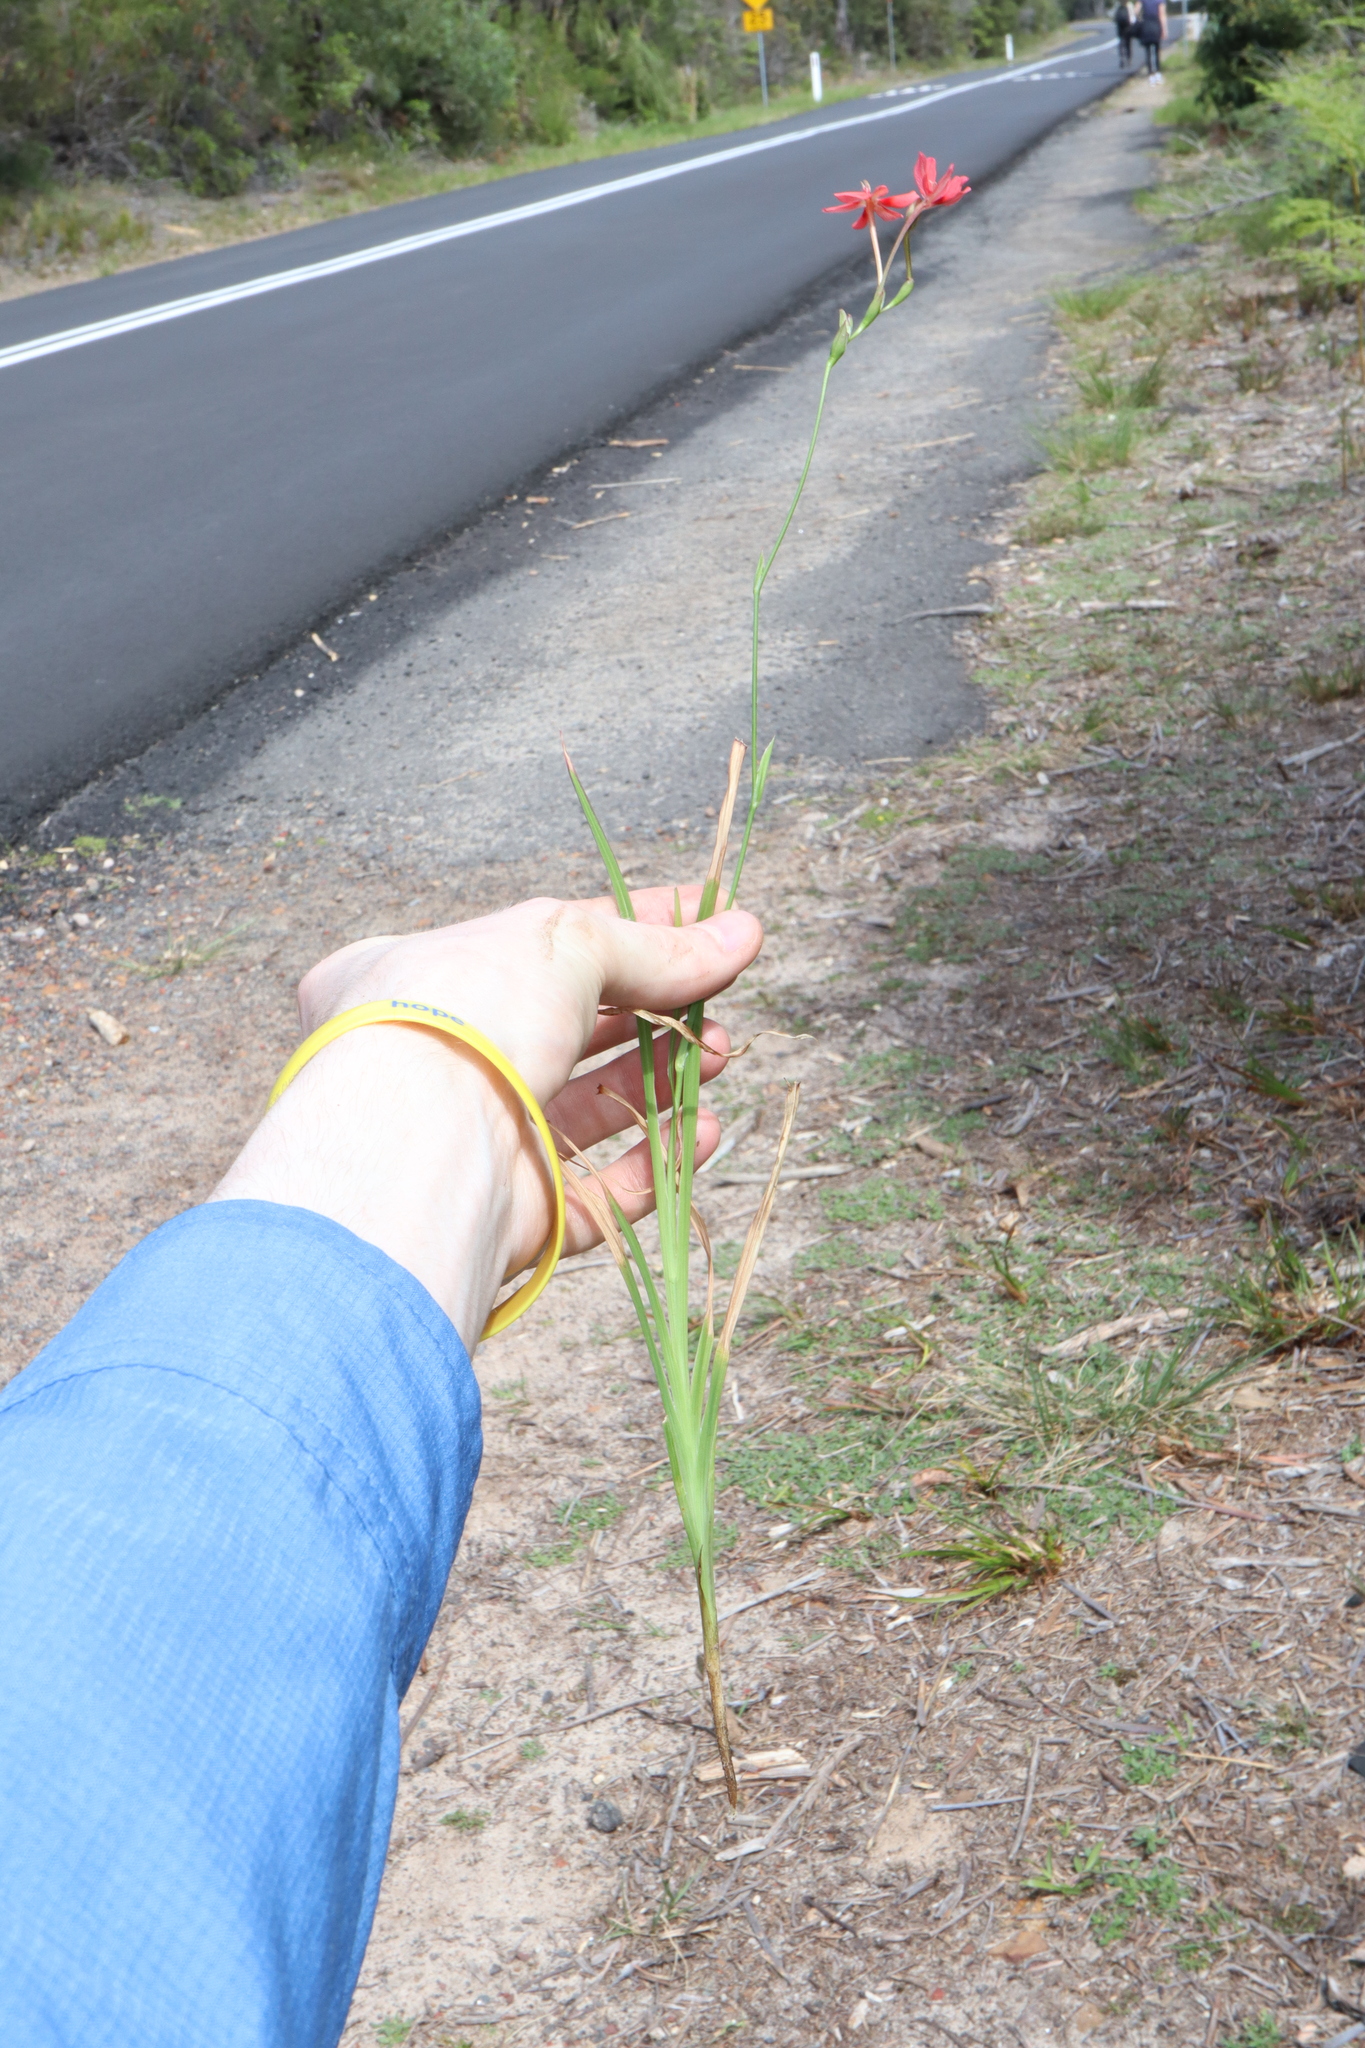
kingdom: Plantae
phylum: Tracheophyta
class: Liliopsida
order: Asparagales
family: Iridaceae
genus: Freesia
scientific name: Freesia laxa
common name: False freesia
